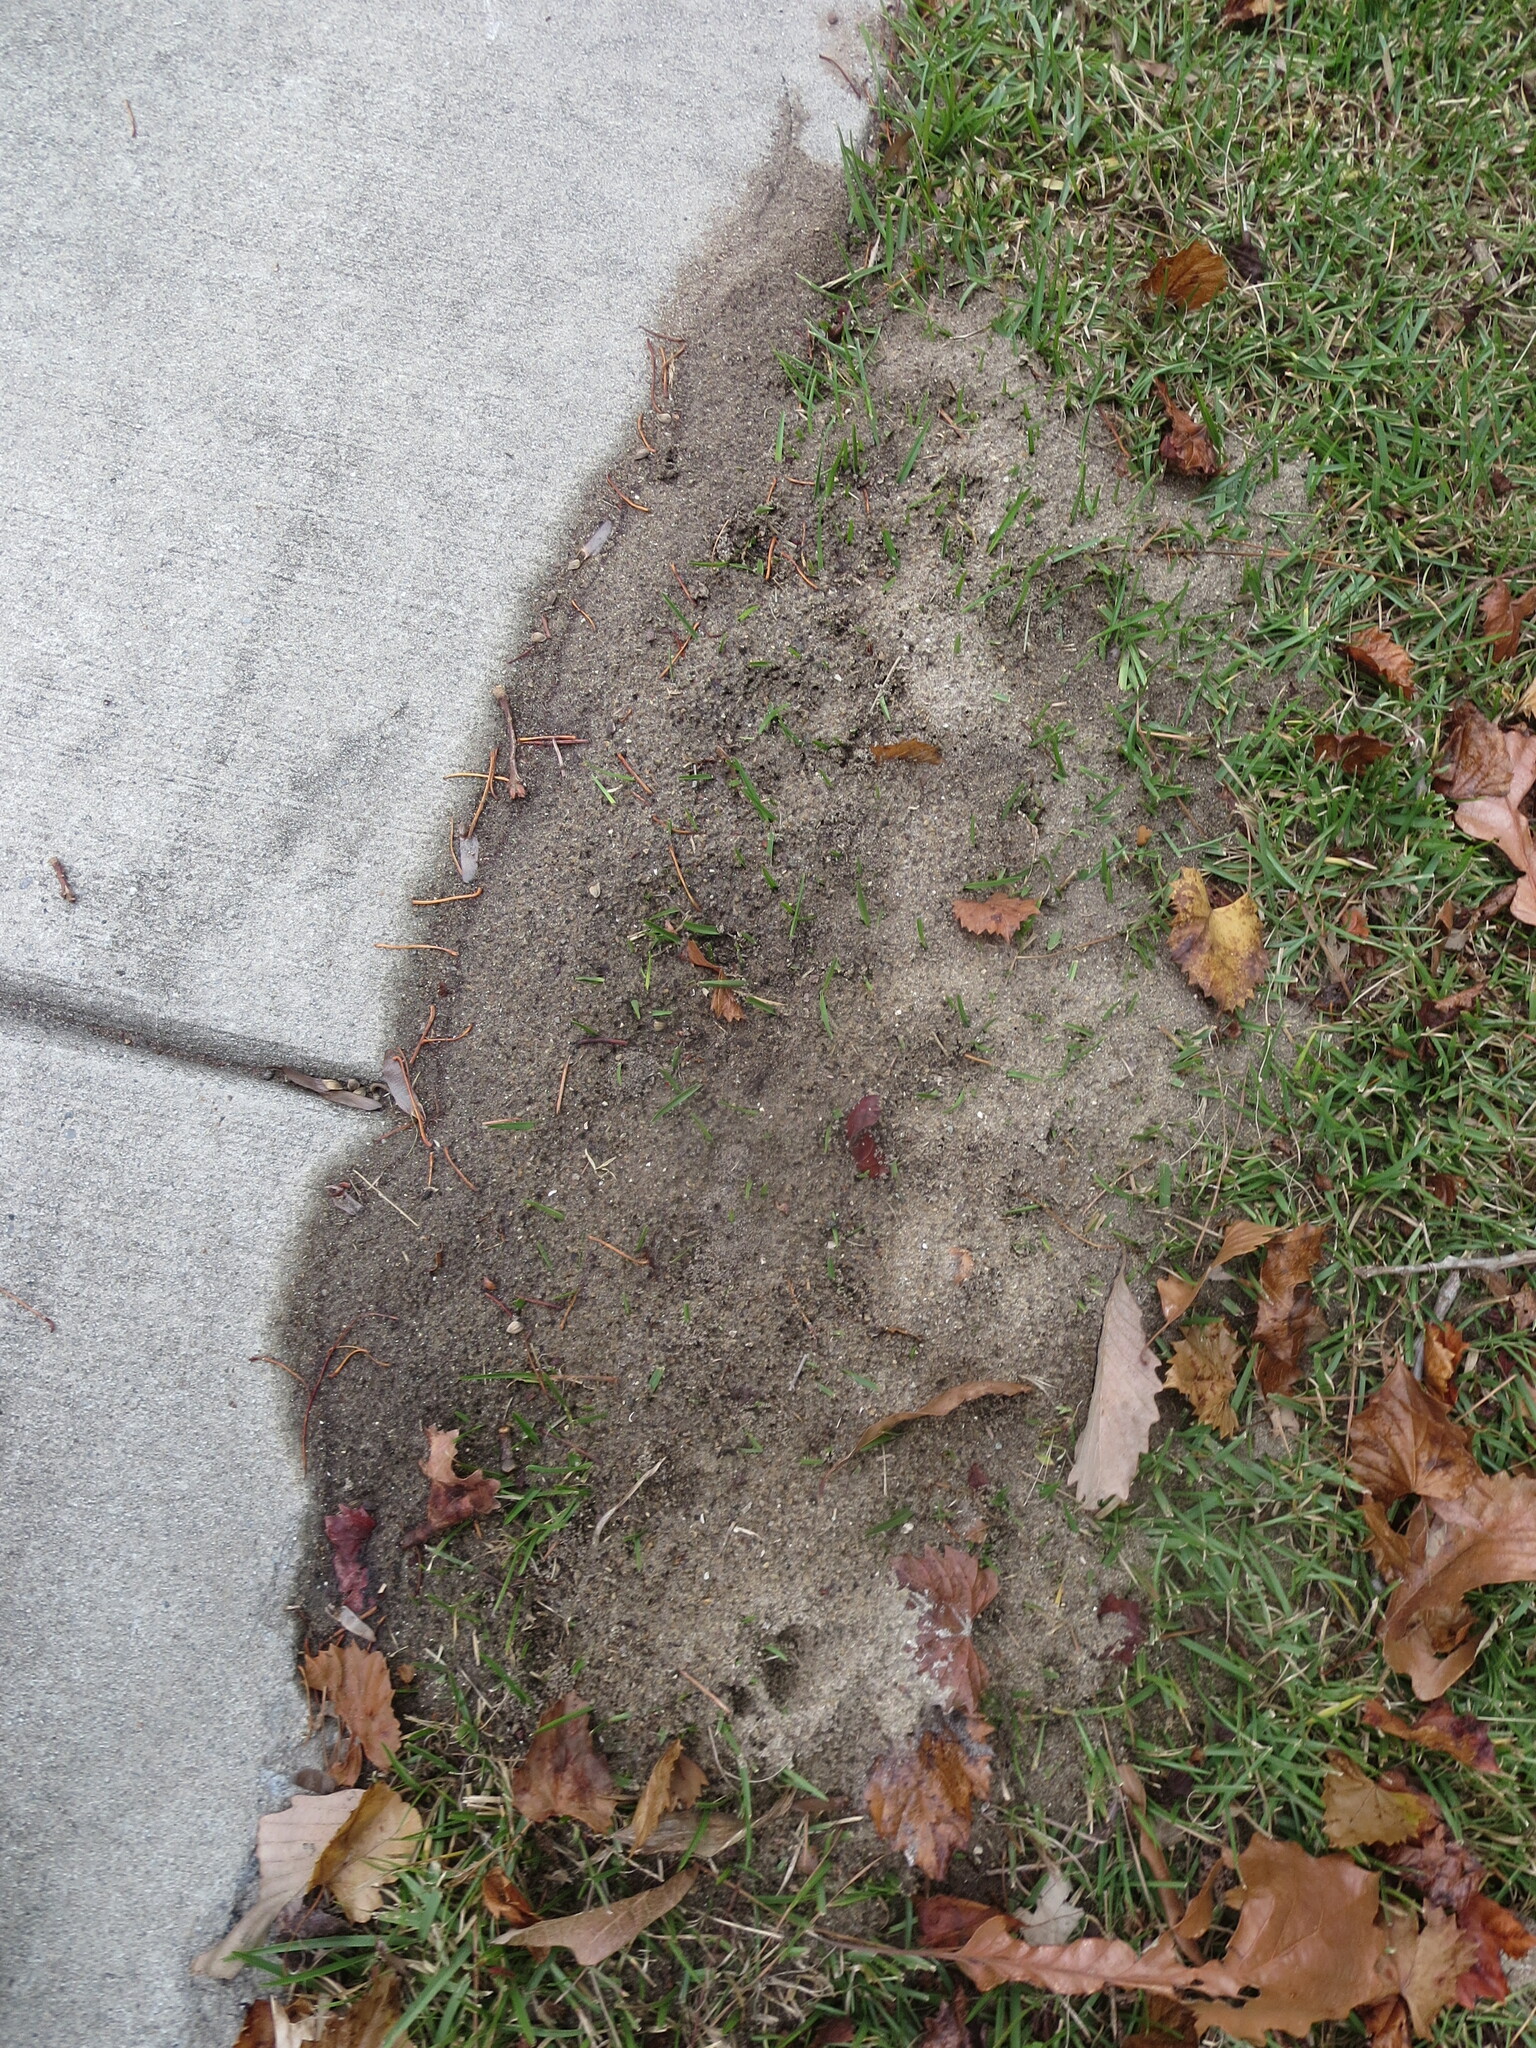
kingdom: Animalia
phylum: Arthropoda
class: Insecta
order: Hymenoptera
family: Formicidae
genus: Solenopsis
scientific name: Solenopsis invicta
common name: Red imported fire ant
